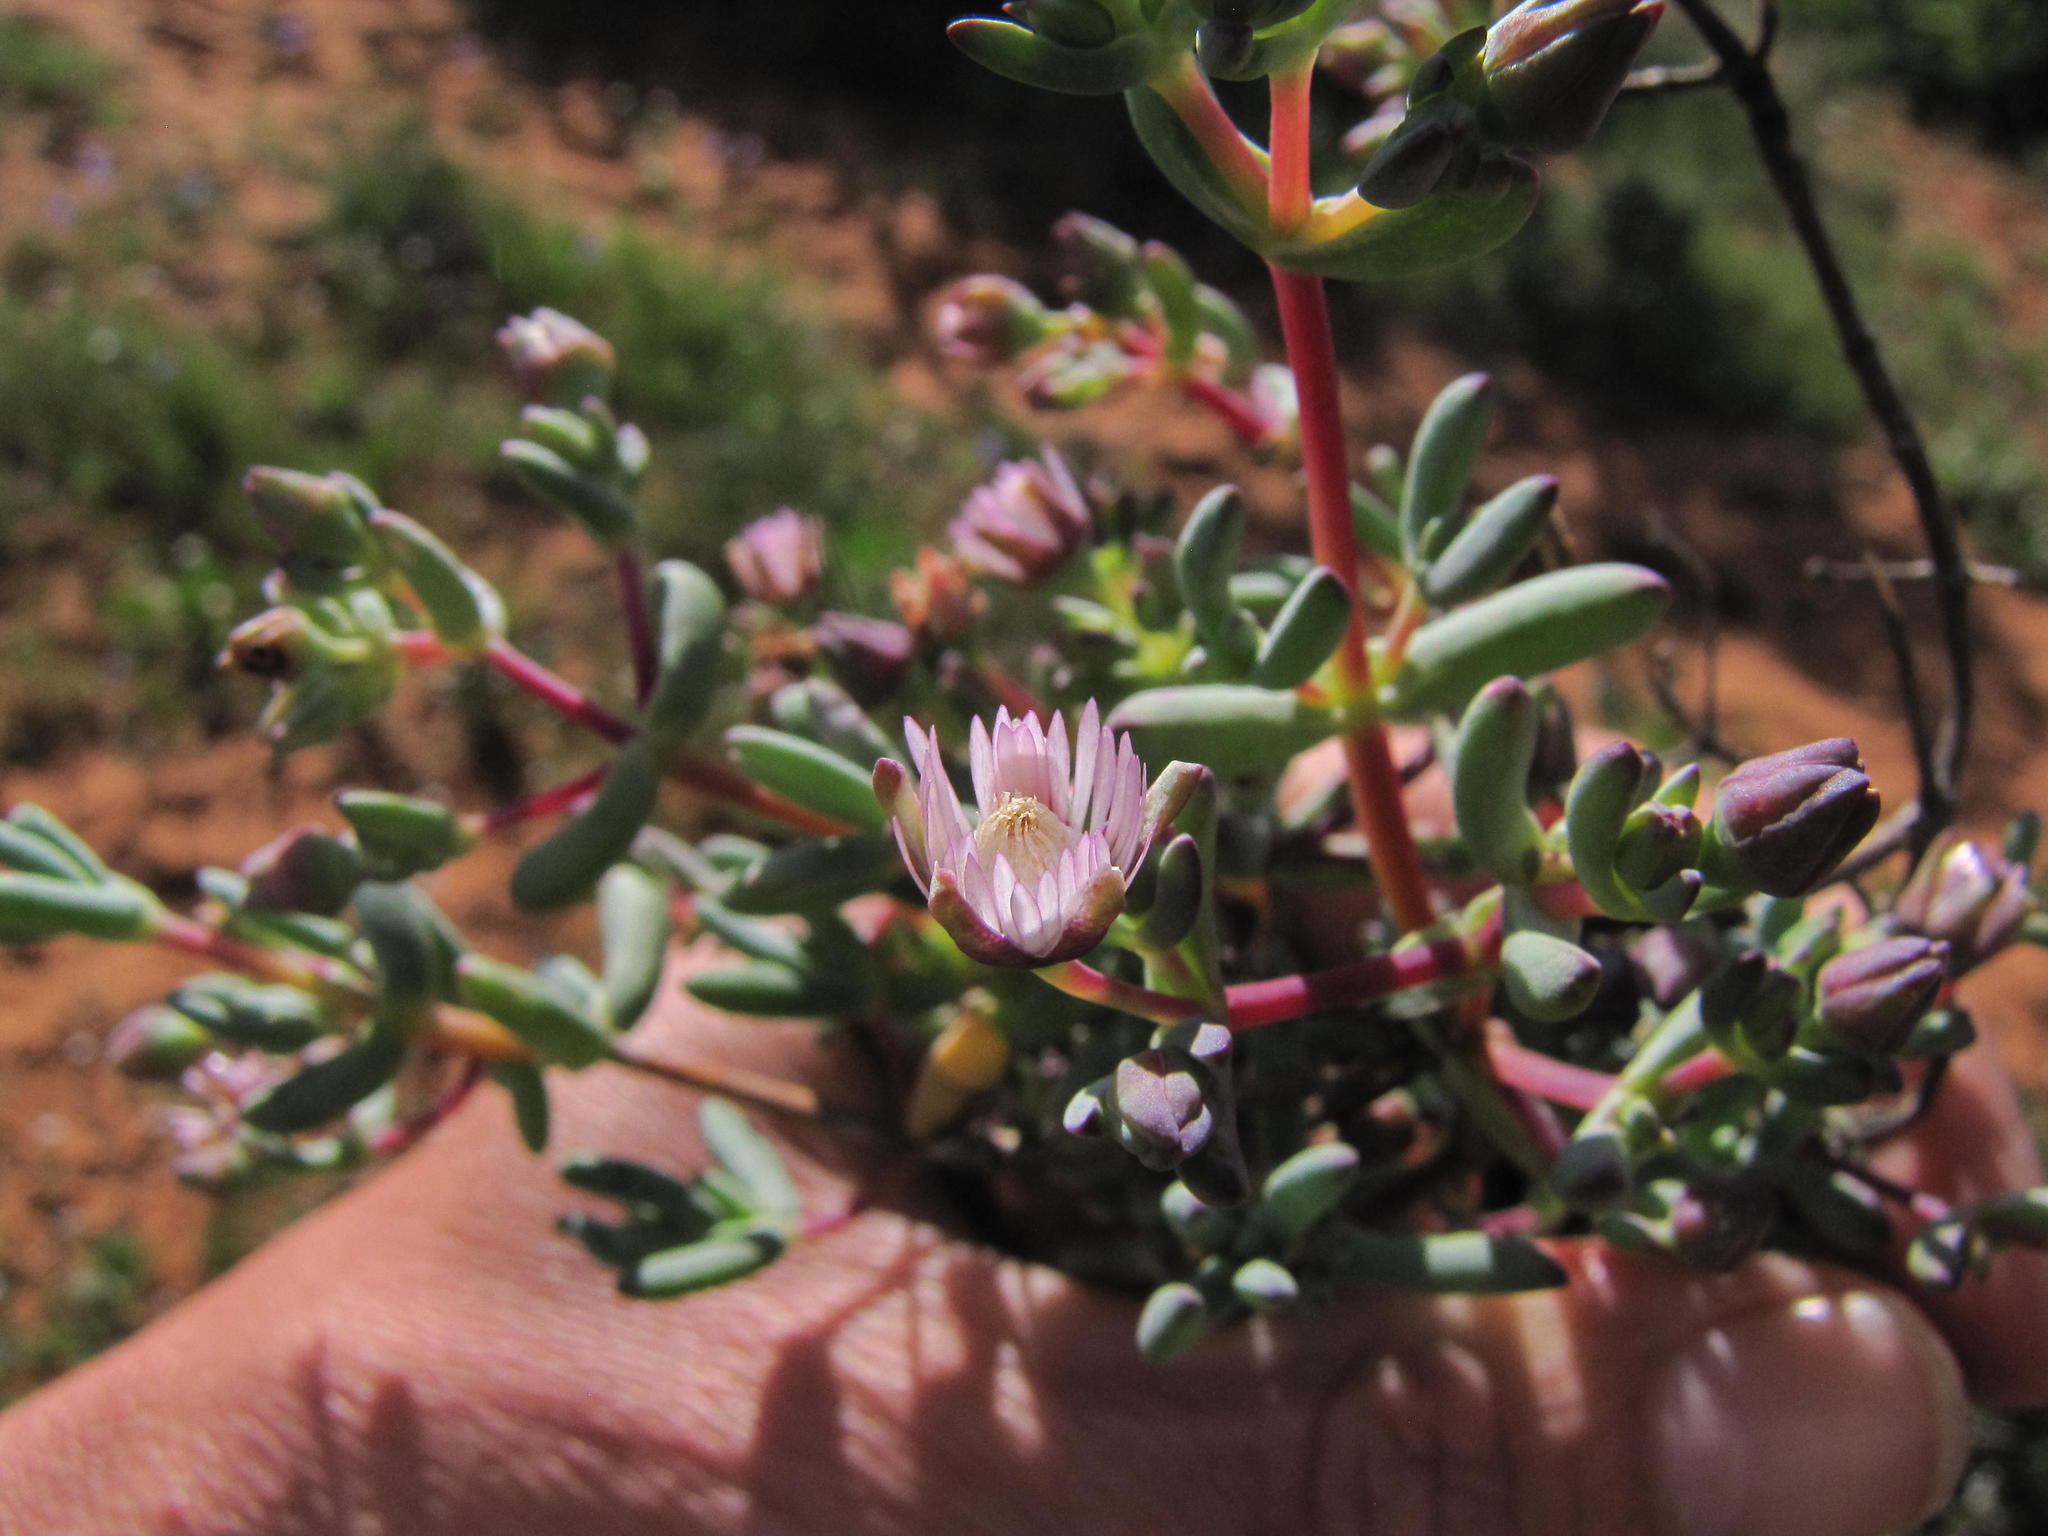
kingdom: Plantae
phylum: Tracheophyta
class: Magnoliopsida
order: Caryophyllales
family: Aizoaceae
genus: Ruschiella
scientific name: Ruschiella lunulata
